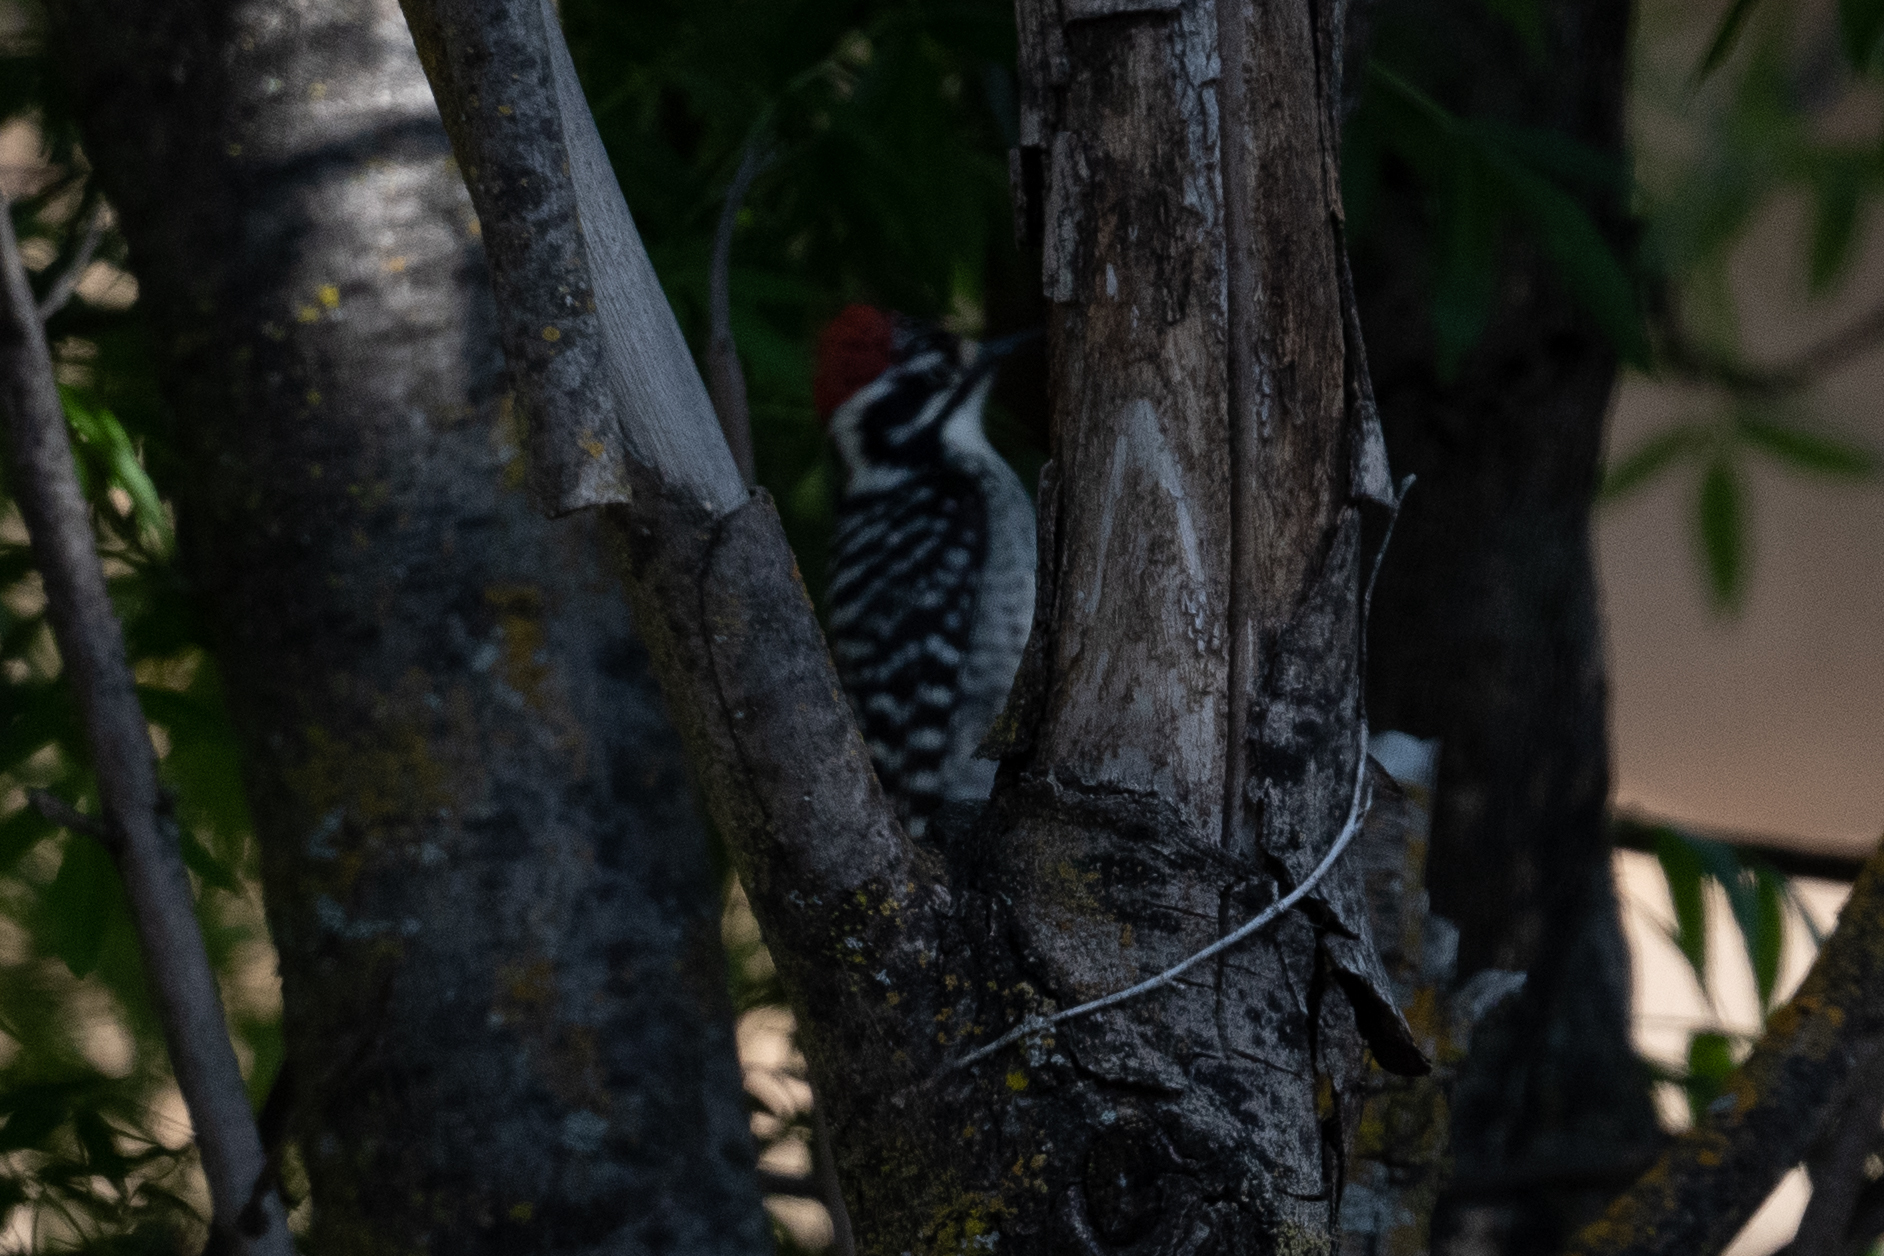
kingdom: Animalia
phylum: Chordata
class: Aves
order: Piciformes
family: Picidae
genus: Dryobates
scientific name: Dryobates nuttallii
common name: Nuttall's woodpecker
